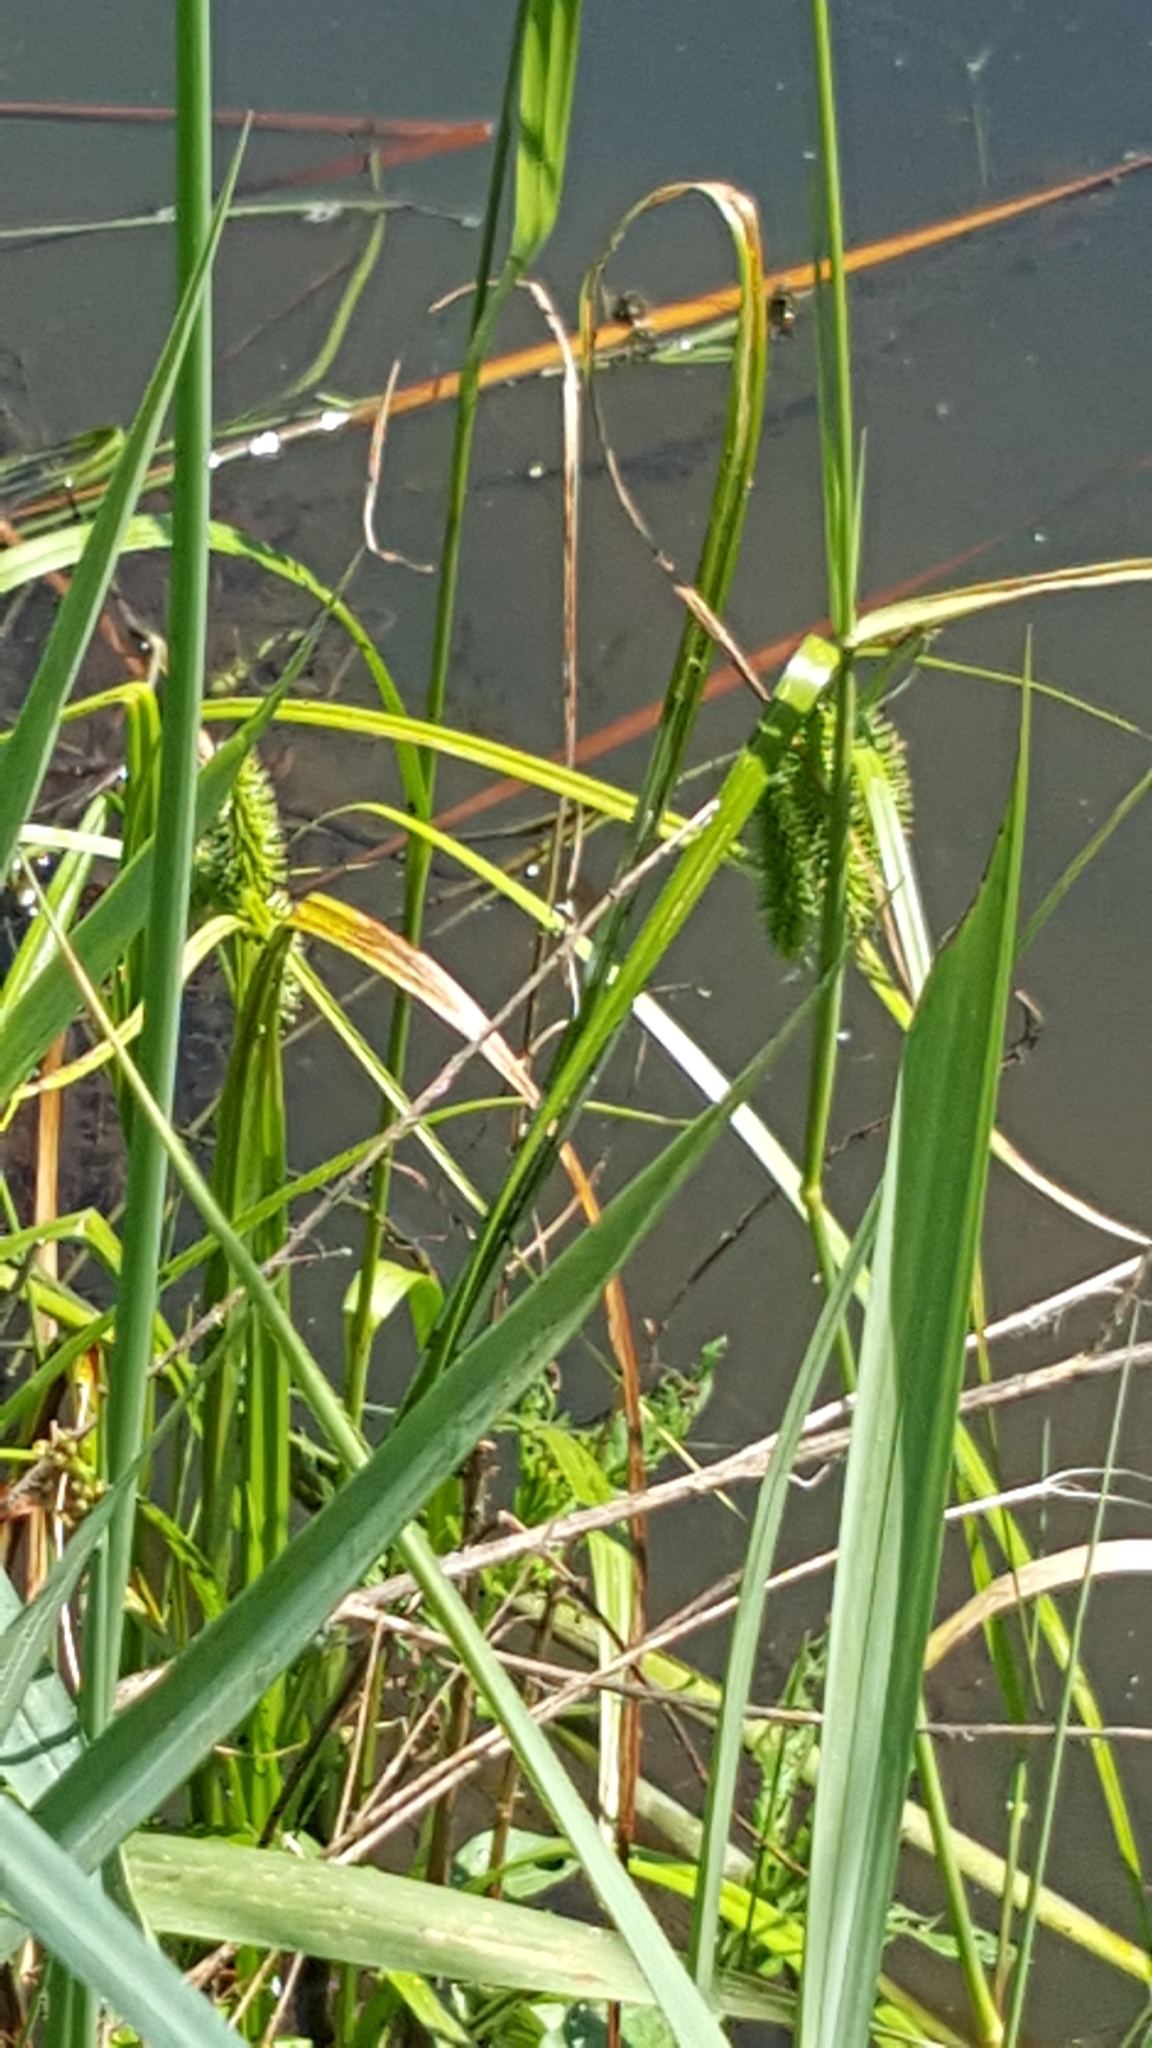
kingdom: Plantae
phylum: Tracheophyta
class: Liliopsida
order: Poales
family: Cyperaceae
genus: Carex
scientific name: Carex comosa
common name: Bristly sedge
